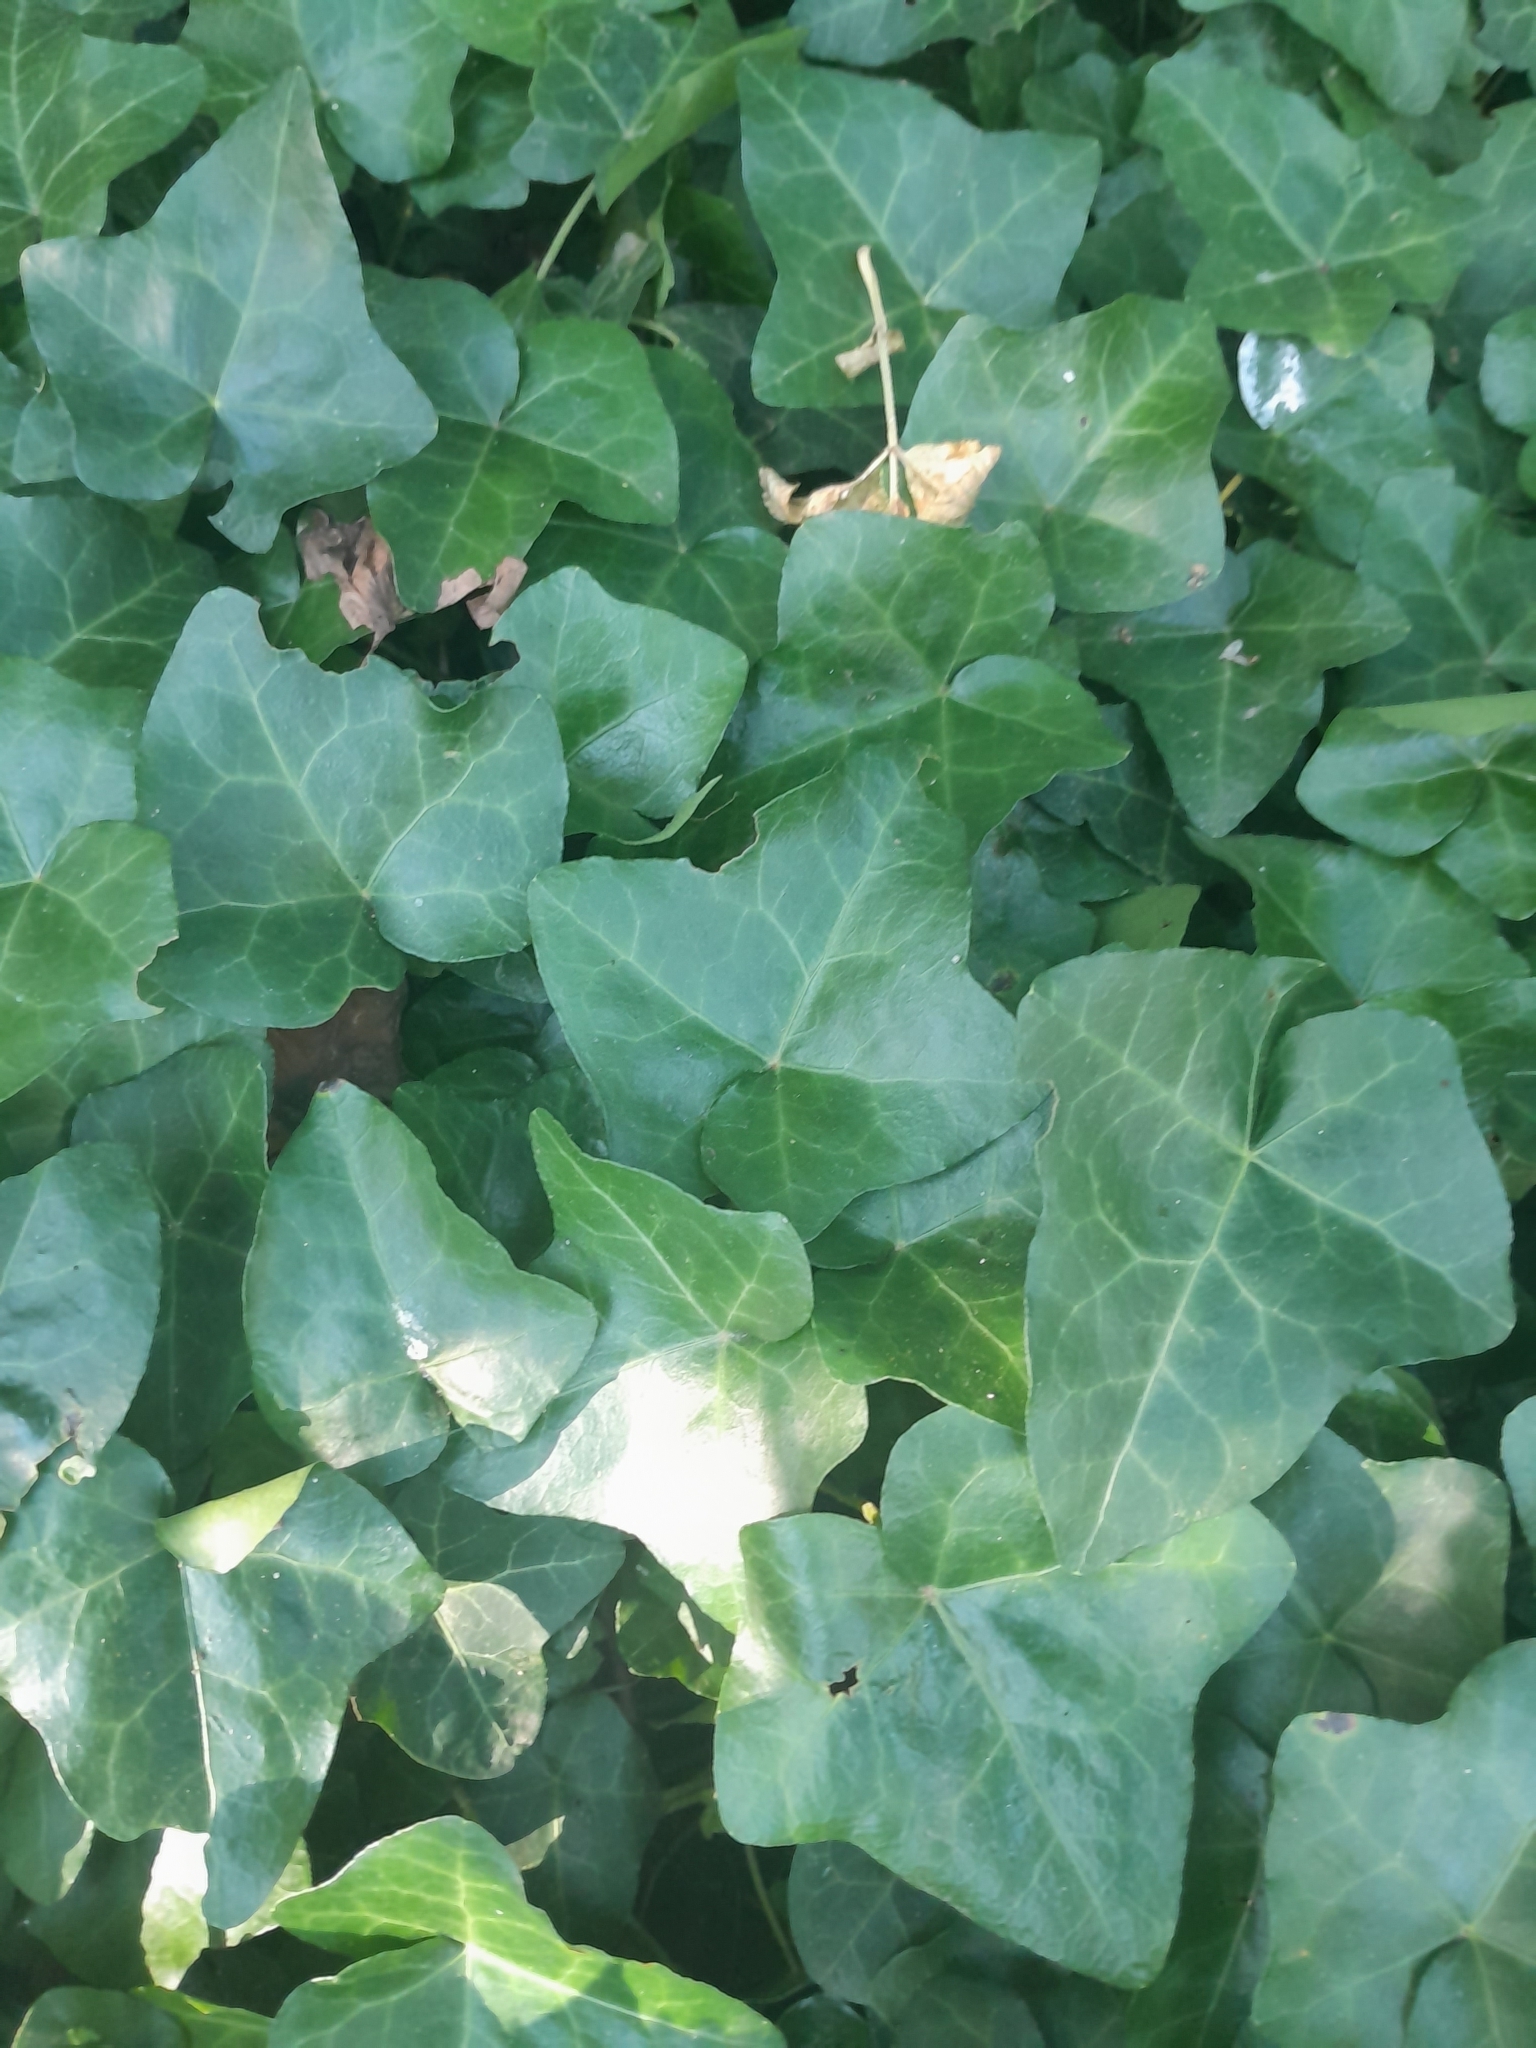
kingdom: Plantae
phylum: Tracheophyta
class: Magnoliopsida
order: Apiales
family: Araliaceae
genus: Hedera
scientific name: Hedera helix
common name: Ivy
